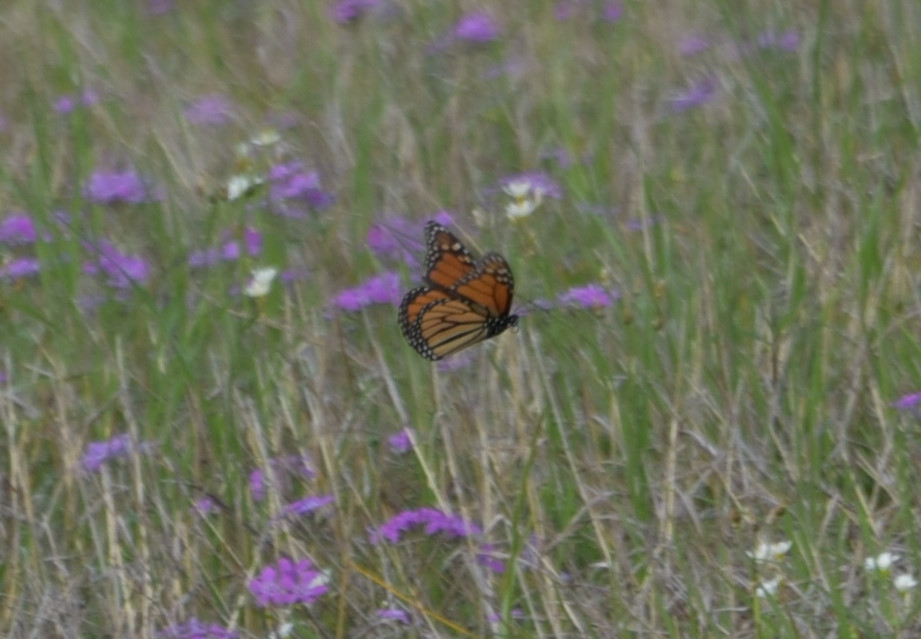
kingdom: Animalia
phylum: Arthropoda
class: Insecta
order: Lepidoptera
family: Nymphalidae
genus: Danaus
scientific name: Danaus plexippus
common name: Monarch
